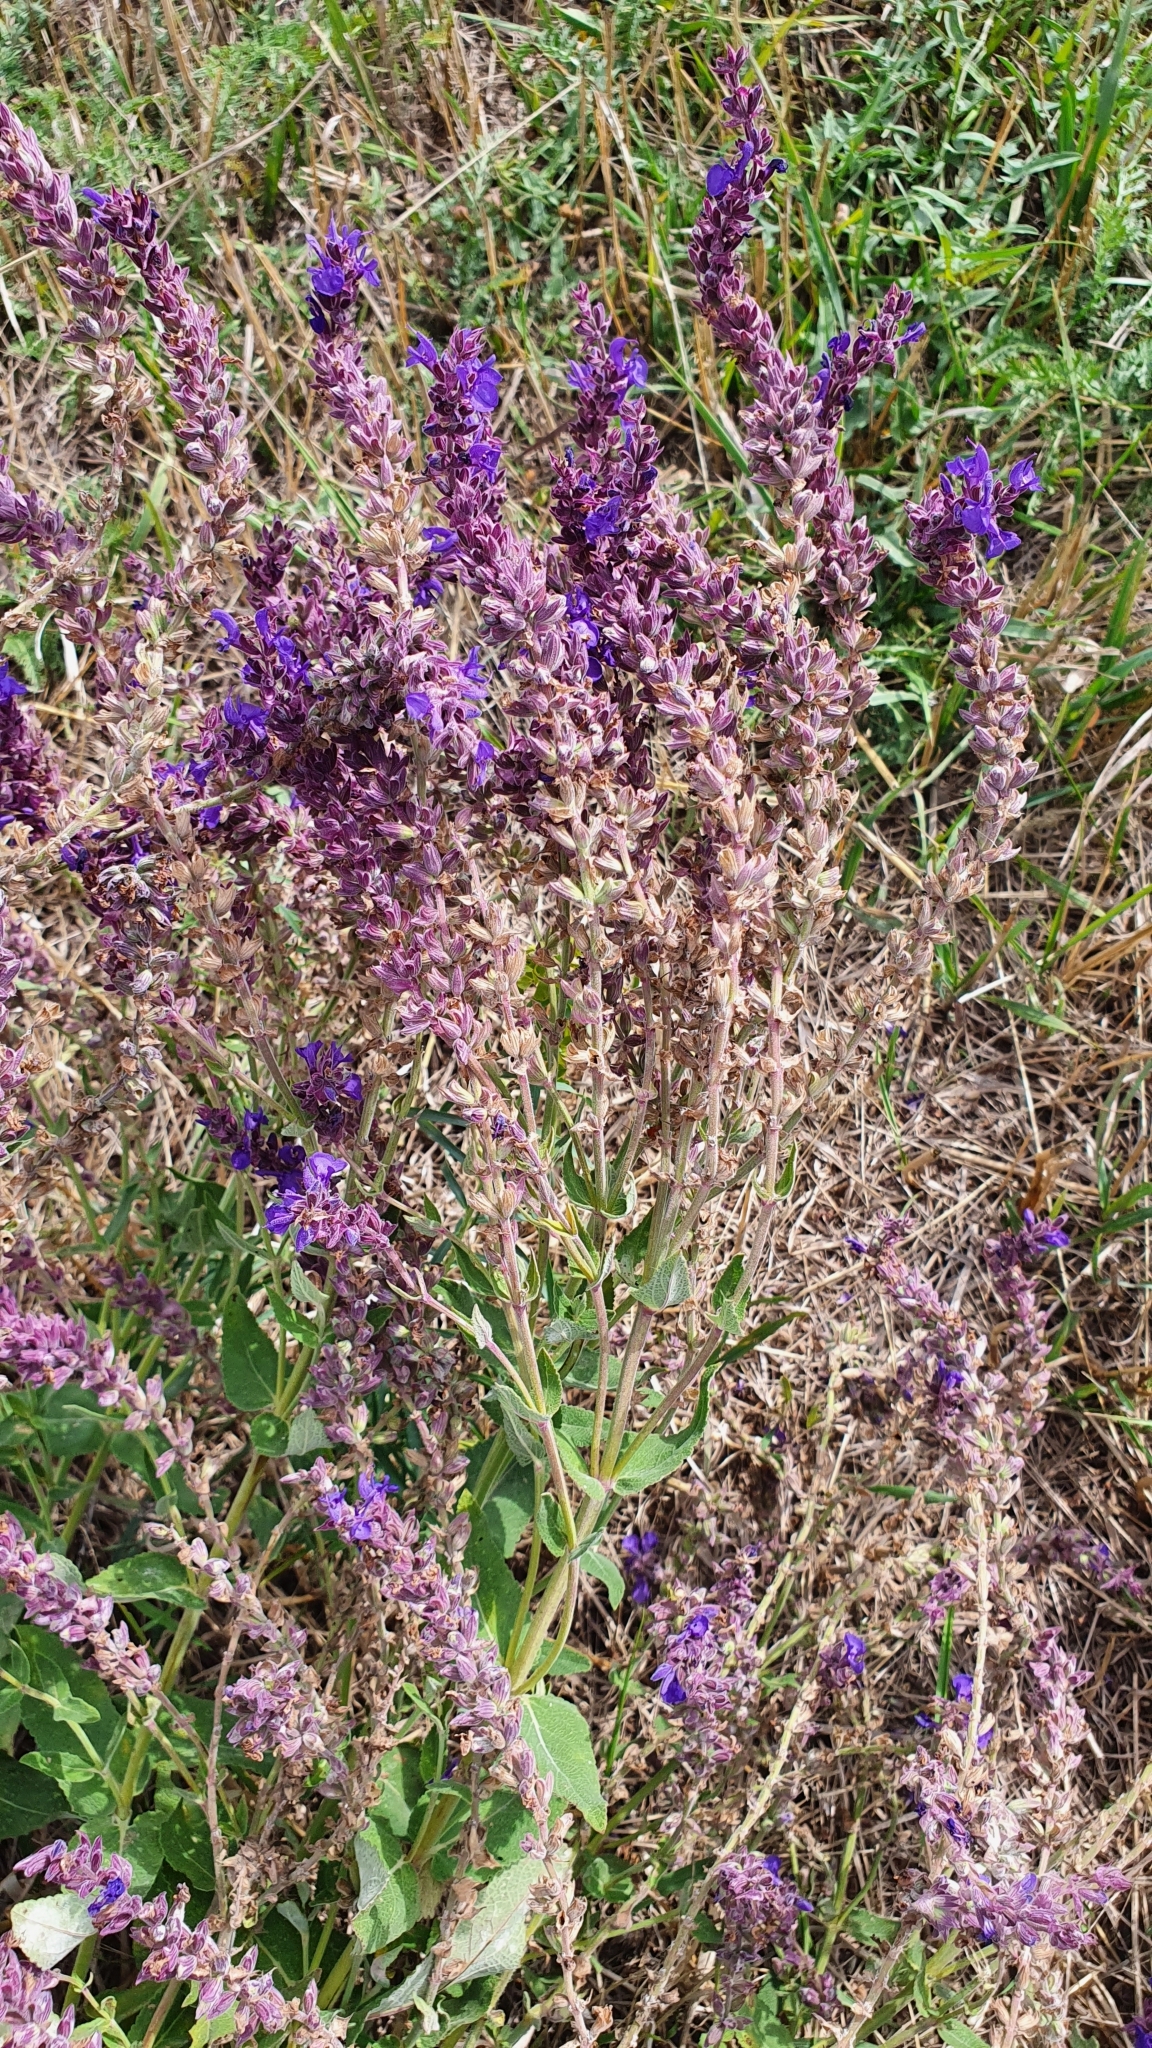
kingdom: Plantae
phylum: Tracheophyta
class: Magnoliopsida
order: Lamiales
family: Lamiaceae
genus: Salvia
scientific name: Salvia nemorosa
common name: Balkan clary
